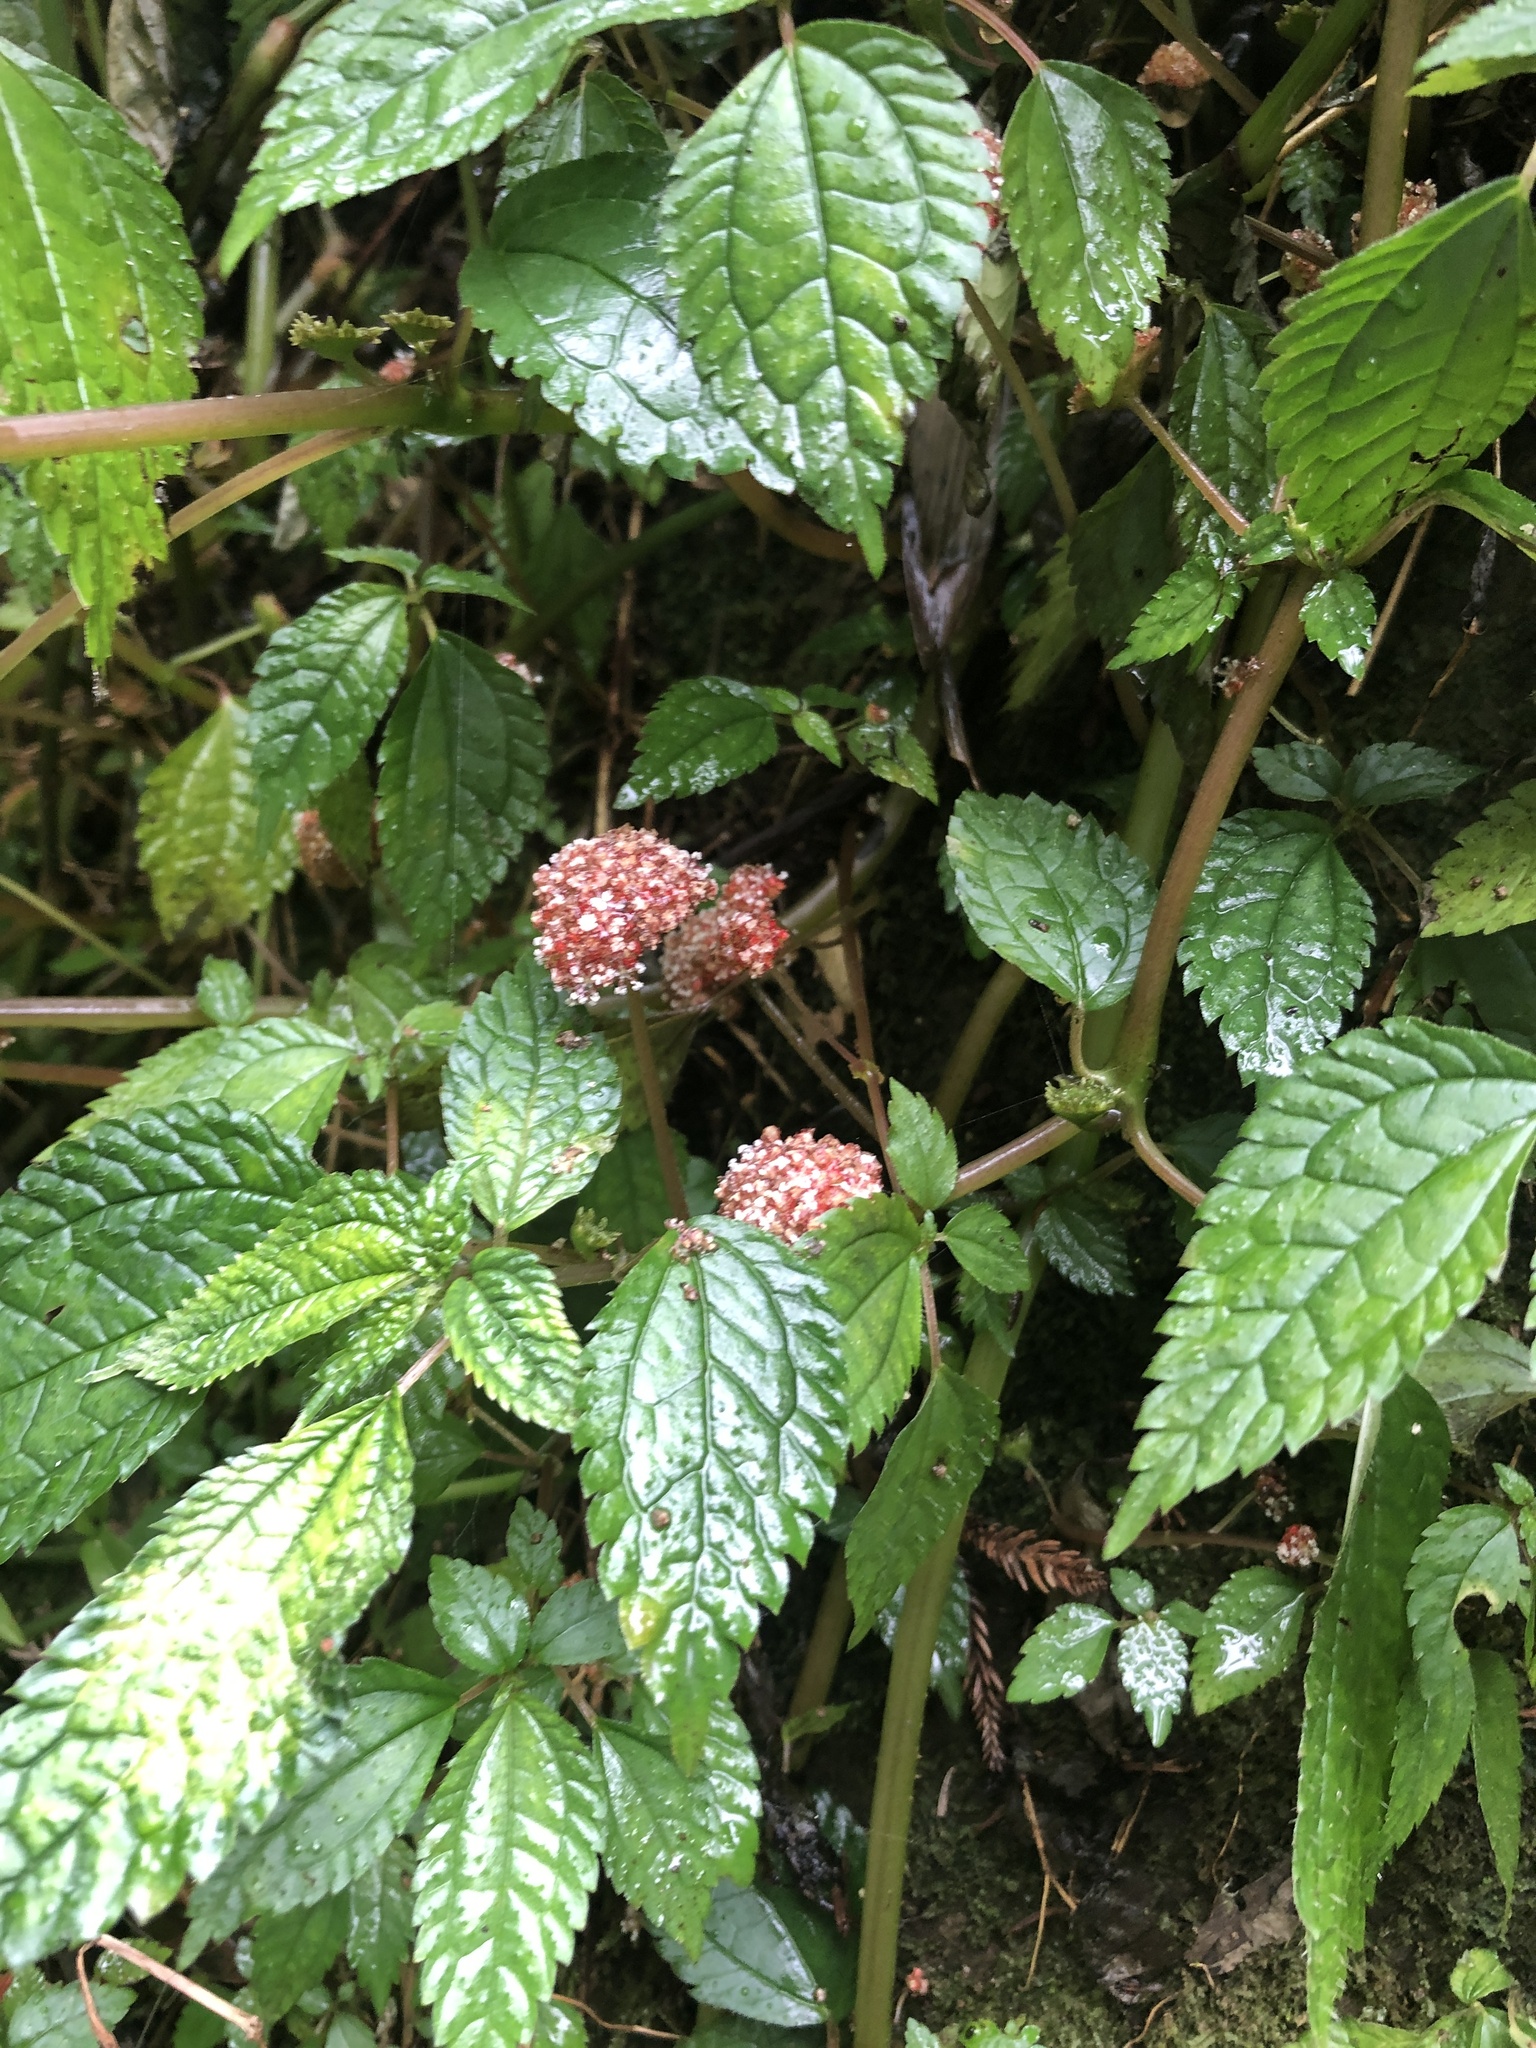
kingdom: Plantae
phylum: Tracheophyta
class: Magnoliopsida
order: Rosales
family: Urticaceae
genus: Lecanthus
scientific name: Lecanthus peduncularis
